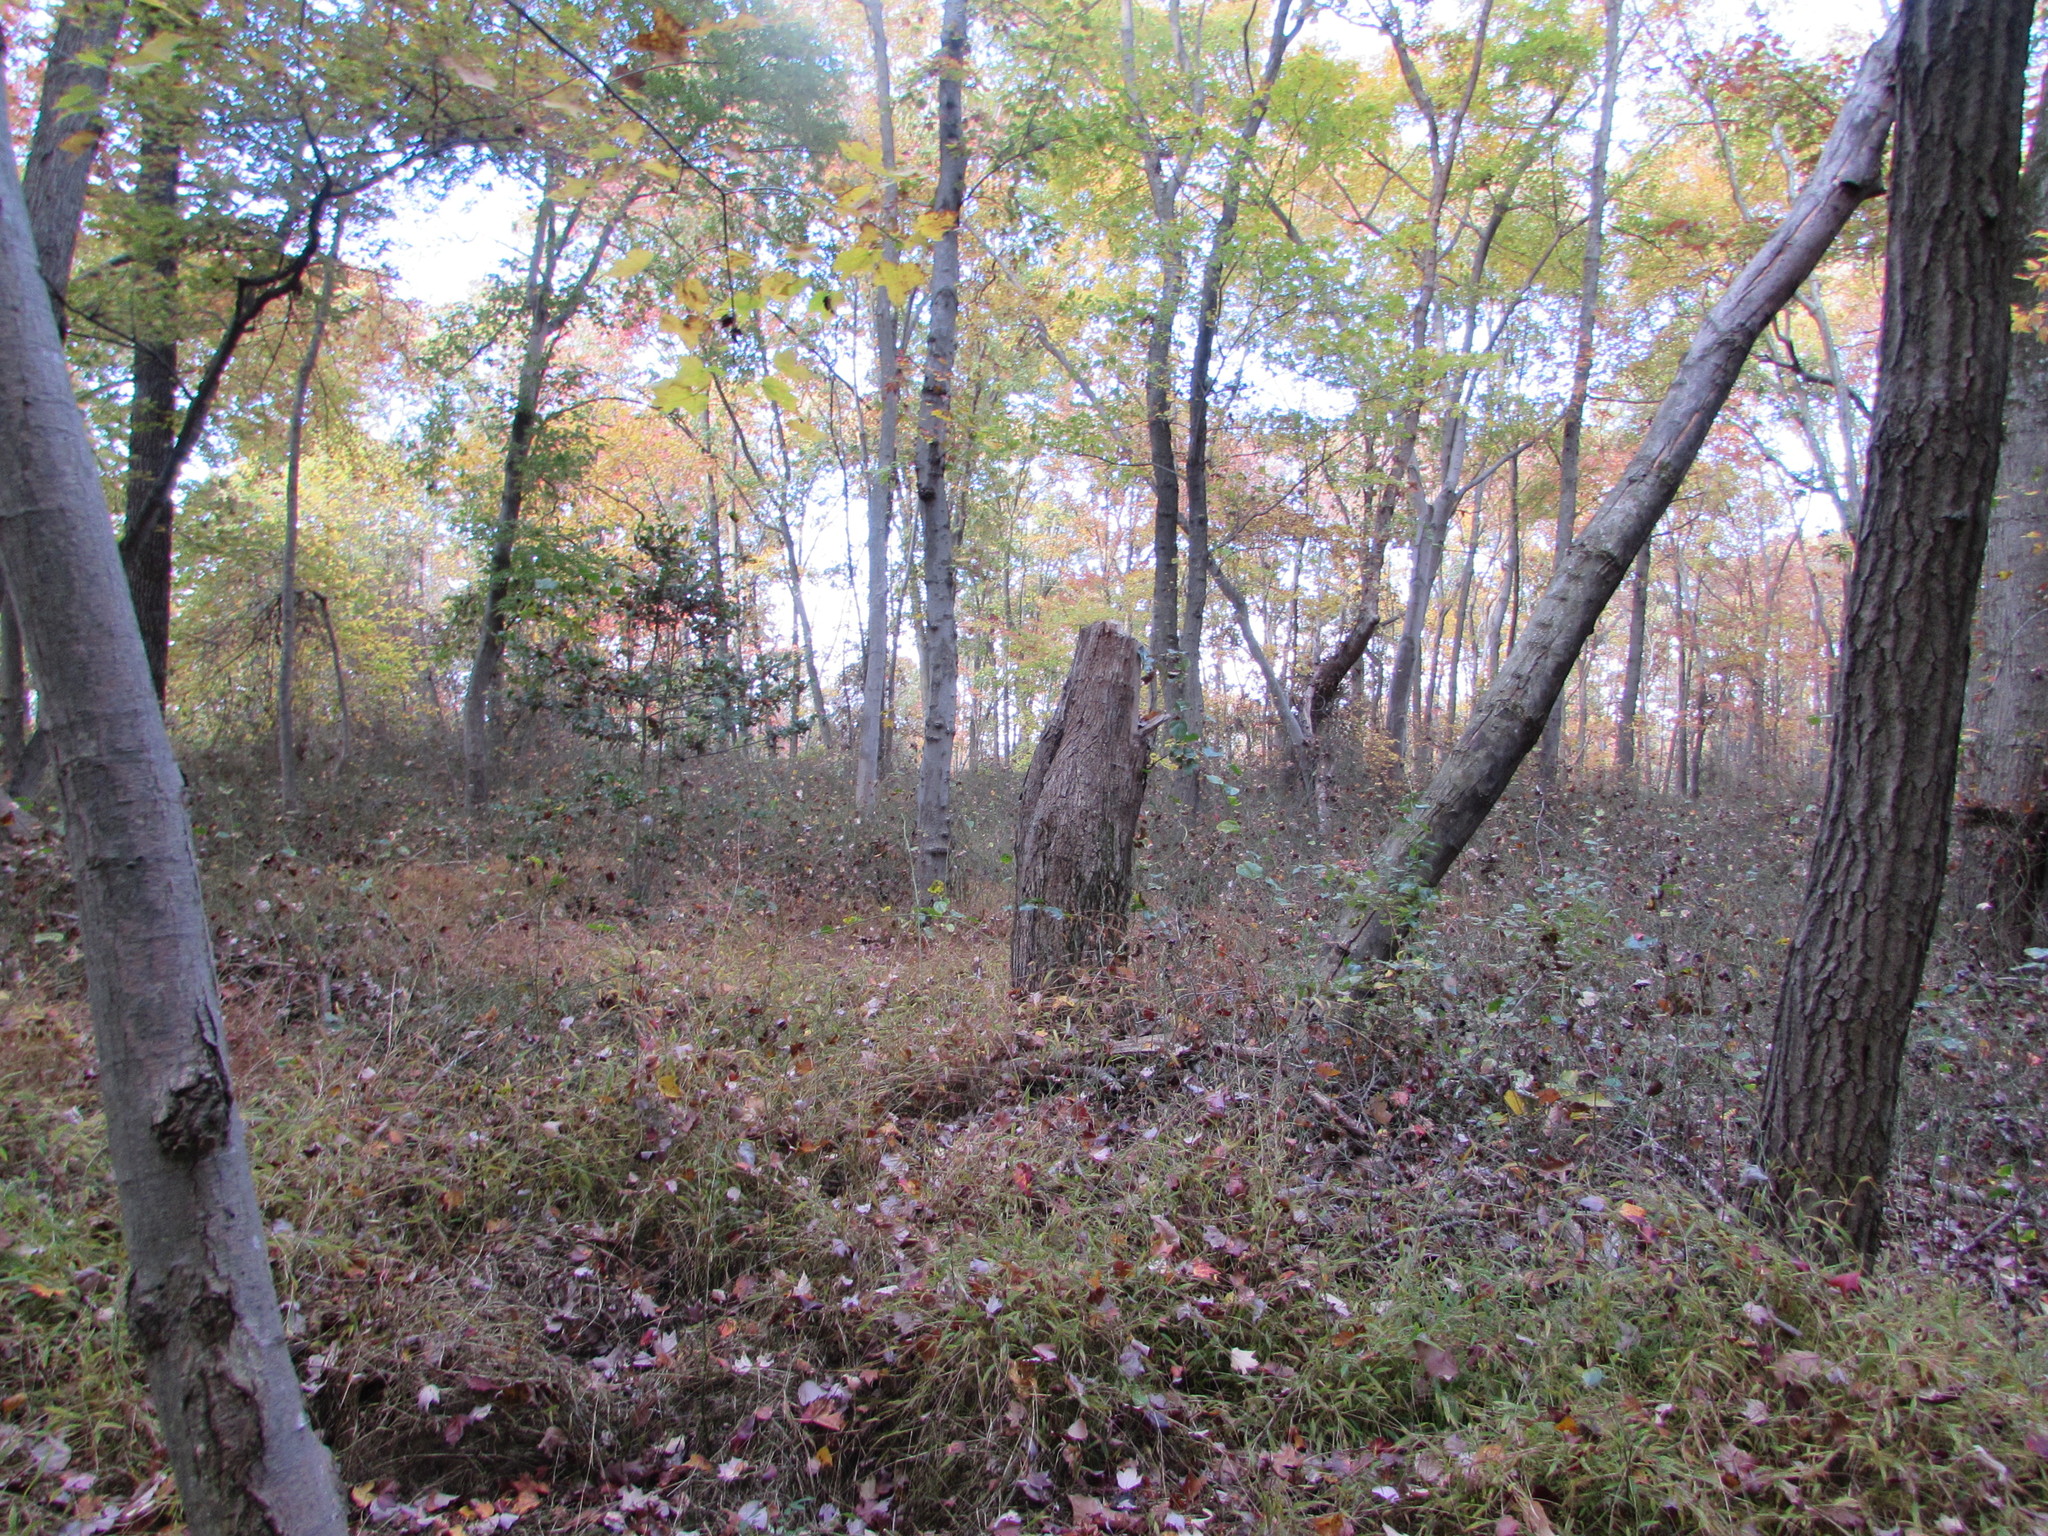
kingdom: Plantae
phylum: Tracheophyta
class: Liliopsida
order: Liliales
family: Smilacaceae
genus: Smilax
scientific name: Smilax rotundifolia
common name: Bullbriar
